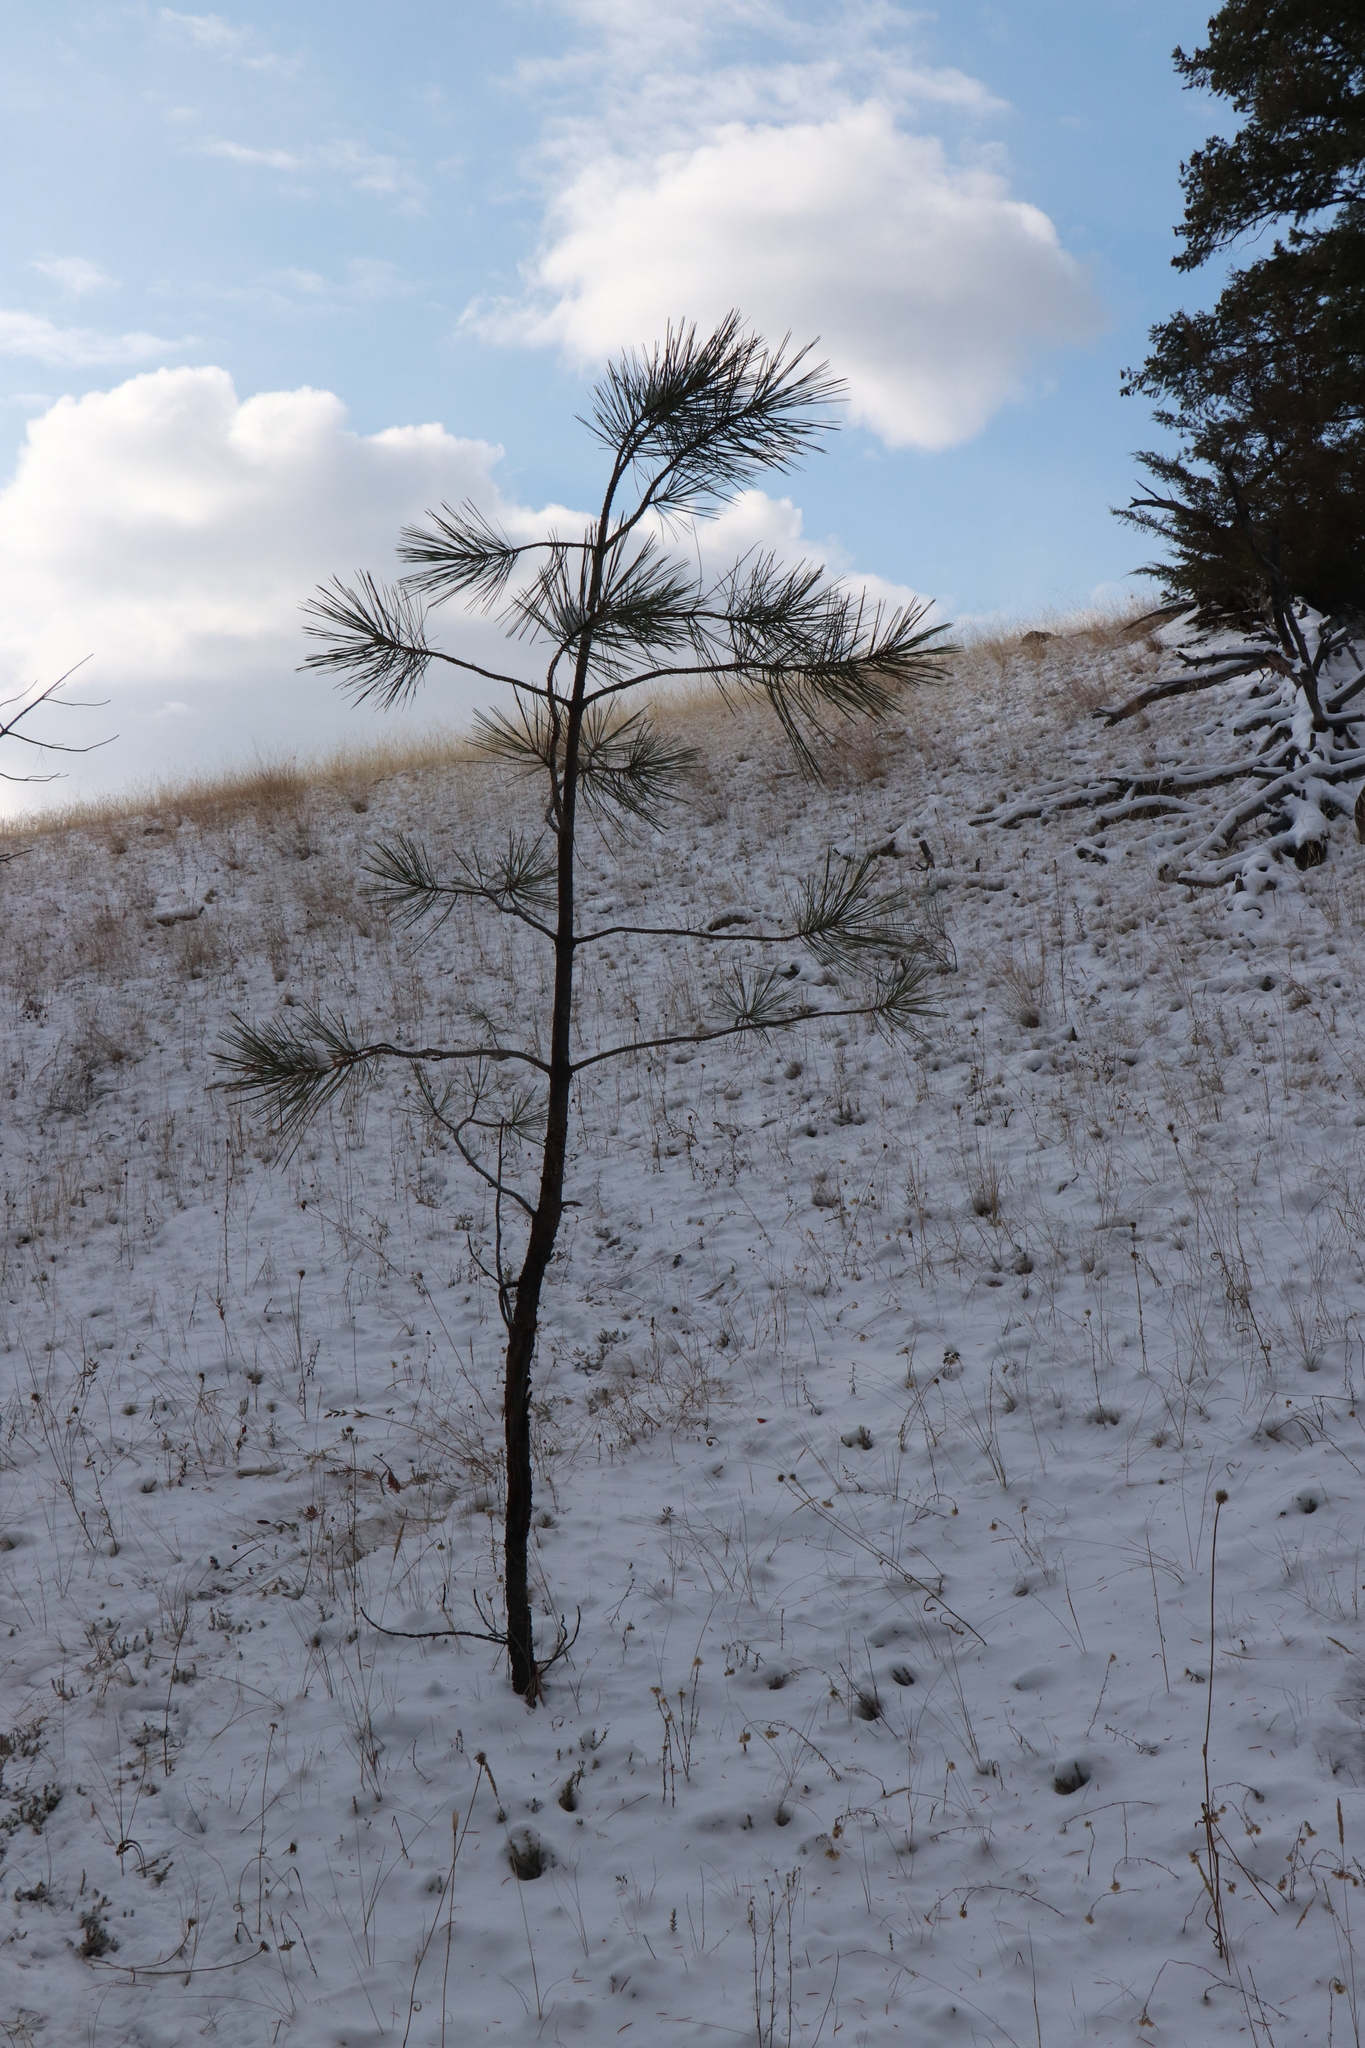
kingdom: Plantae
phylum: Tracheophyta
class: Pinopsida
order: Pinales
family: Pinaceae
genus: Pinus
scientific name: Pinus ponderosa
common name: Western yellow-pine
